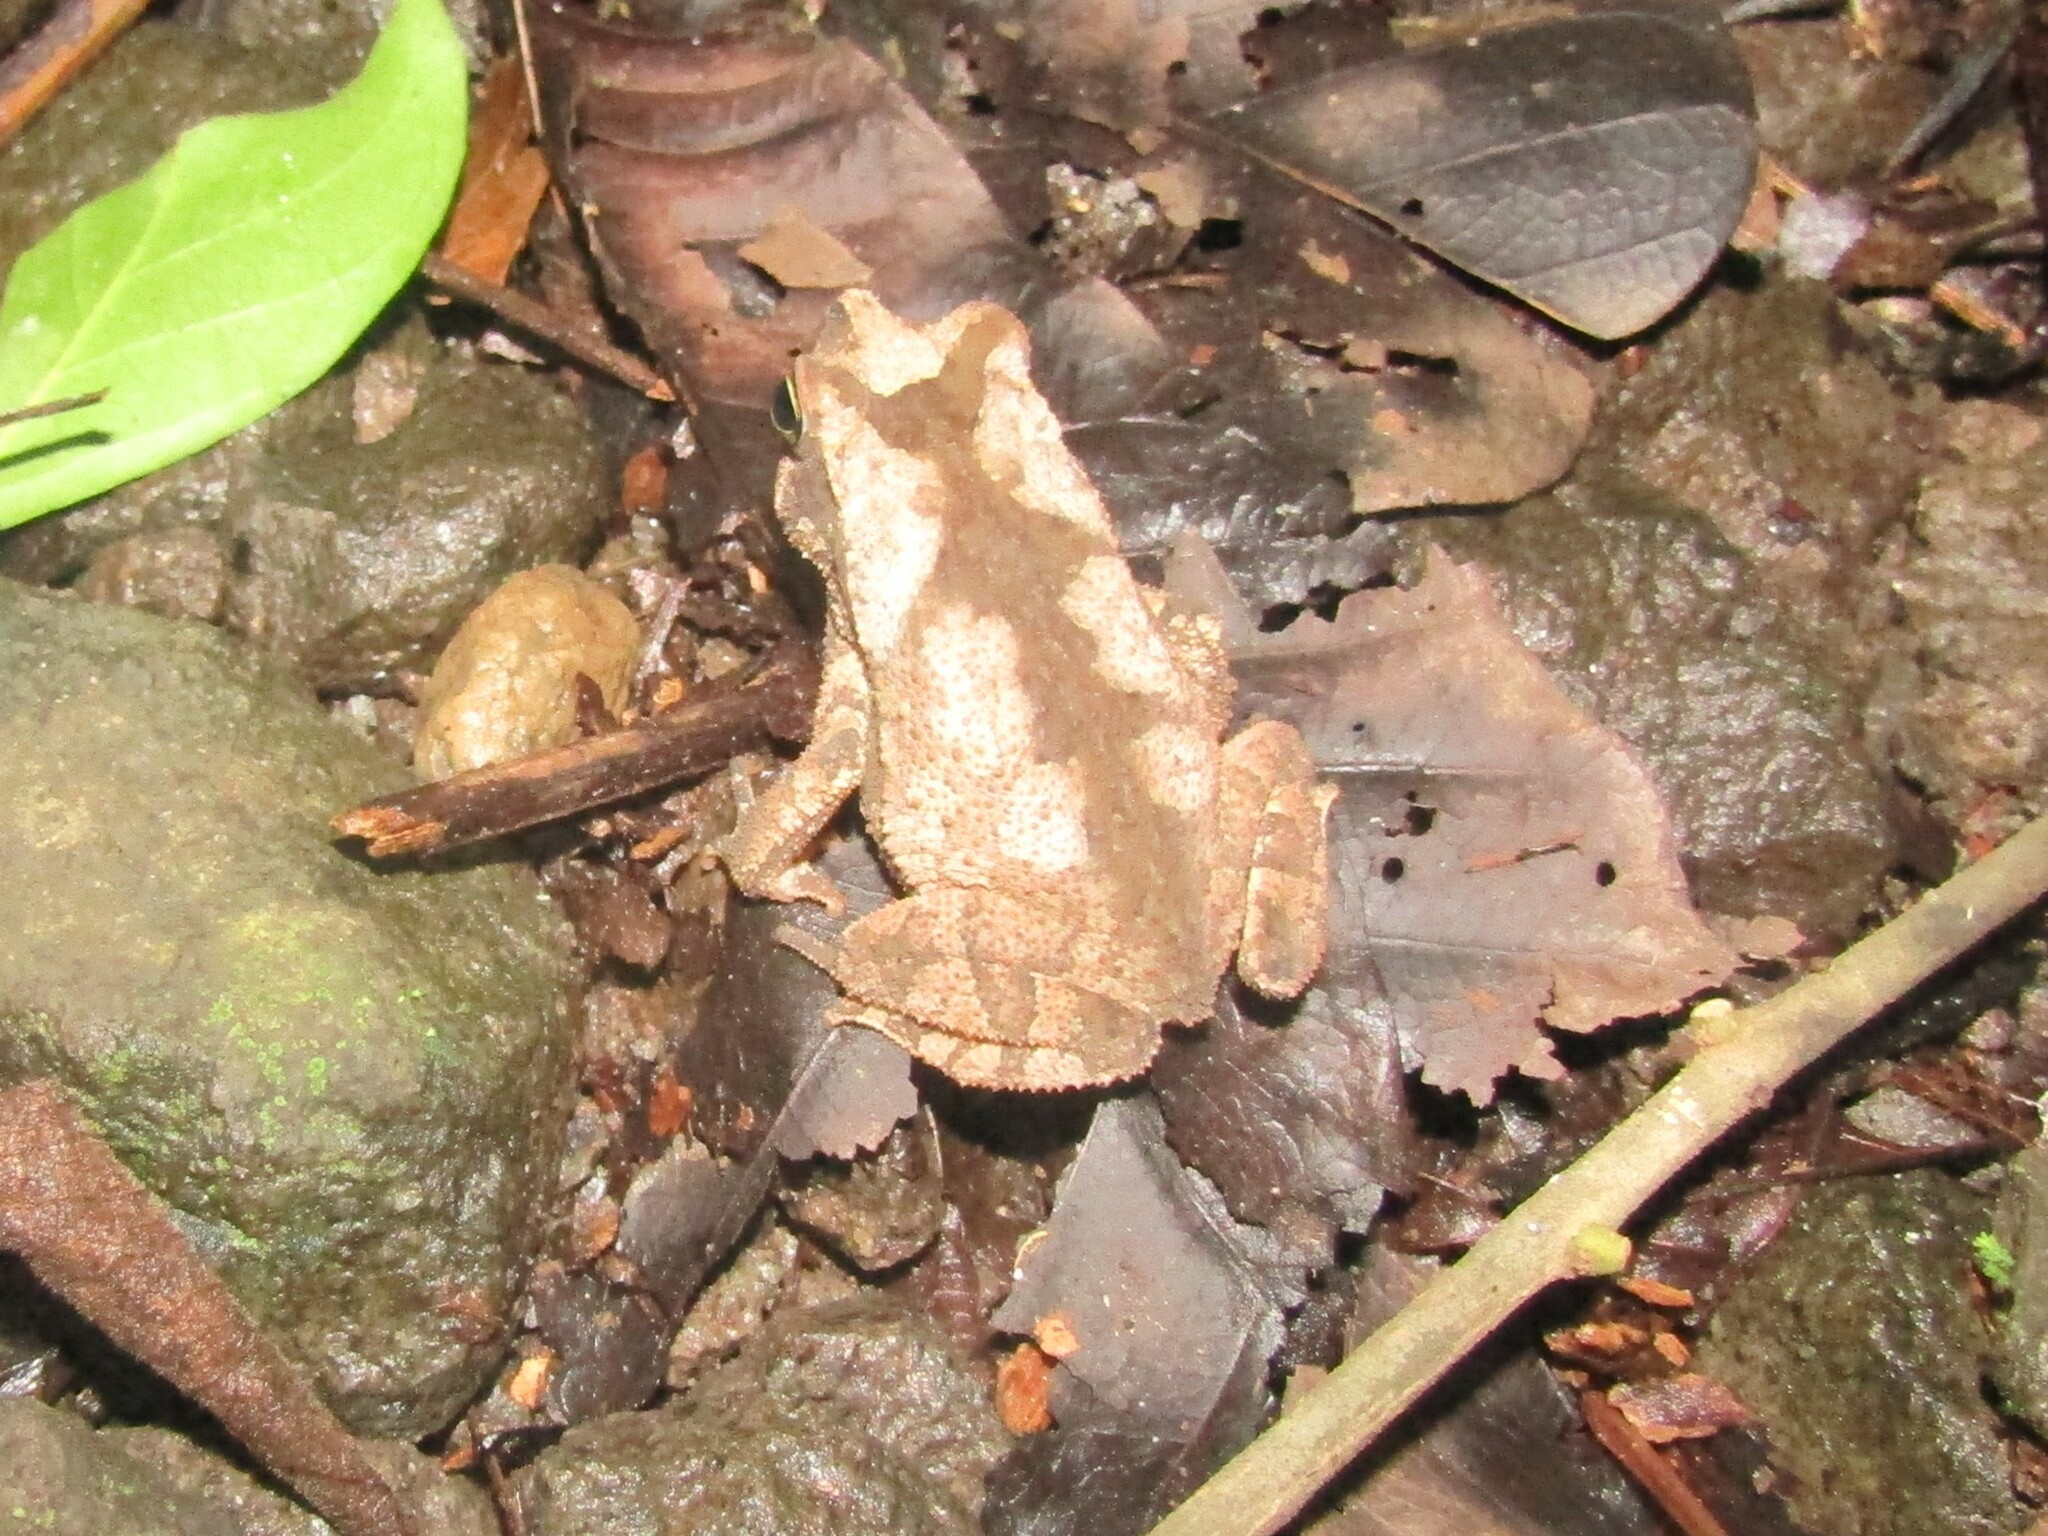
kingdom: Animalia
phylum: Chordata
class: Amphibia
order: Anura
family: Bufonidae
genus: Rhinella
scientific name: Rhinella alata
